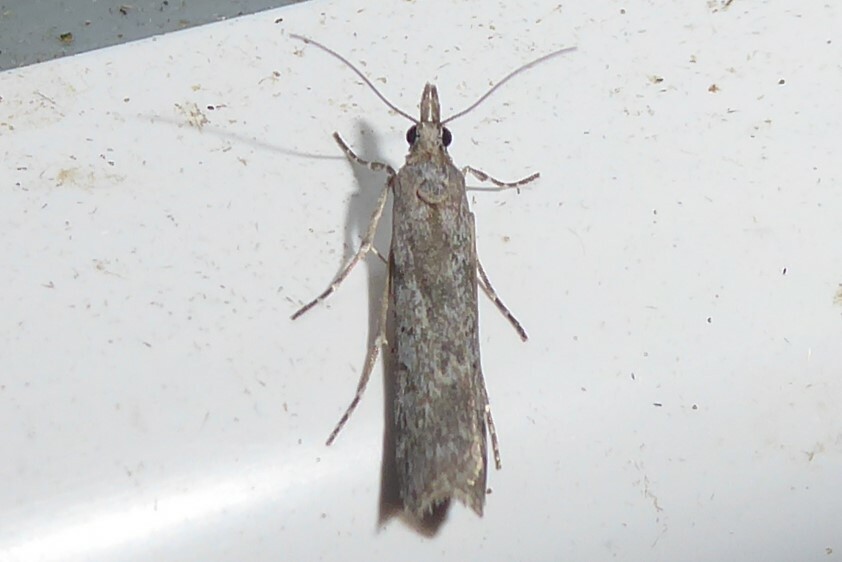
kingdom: Animalia
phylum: Arthropoda
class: Insecta
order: Lepidoptera
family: Crambidae
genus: Eudonia
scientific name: Eudonia leptalea
